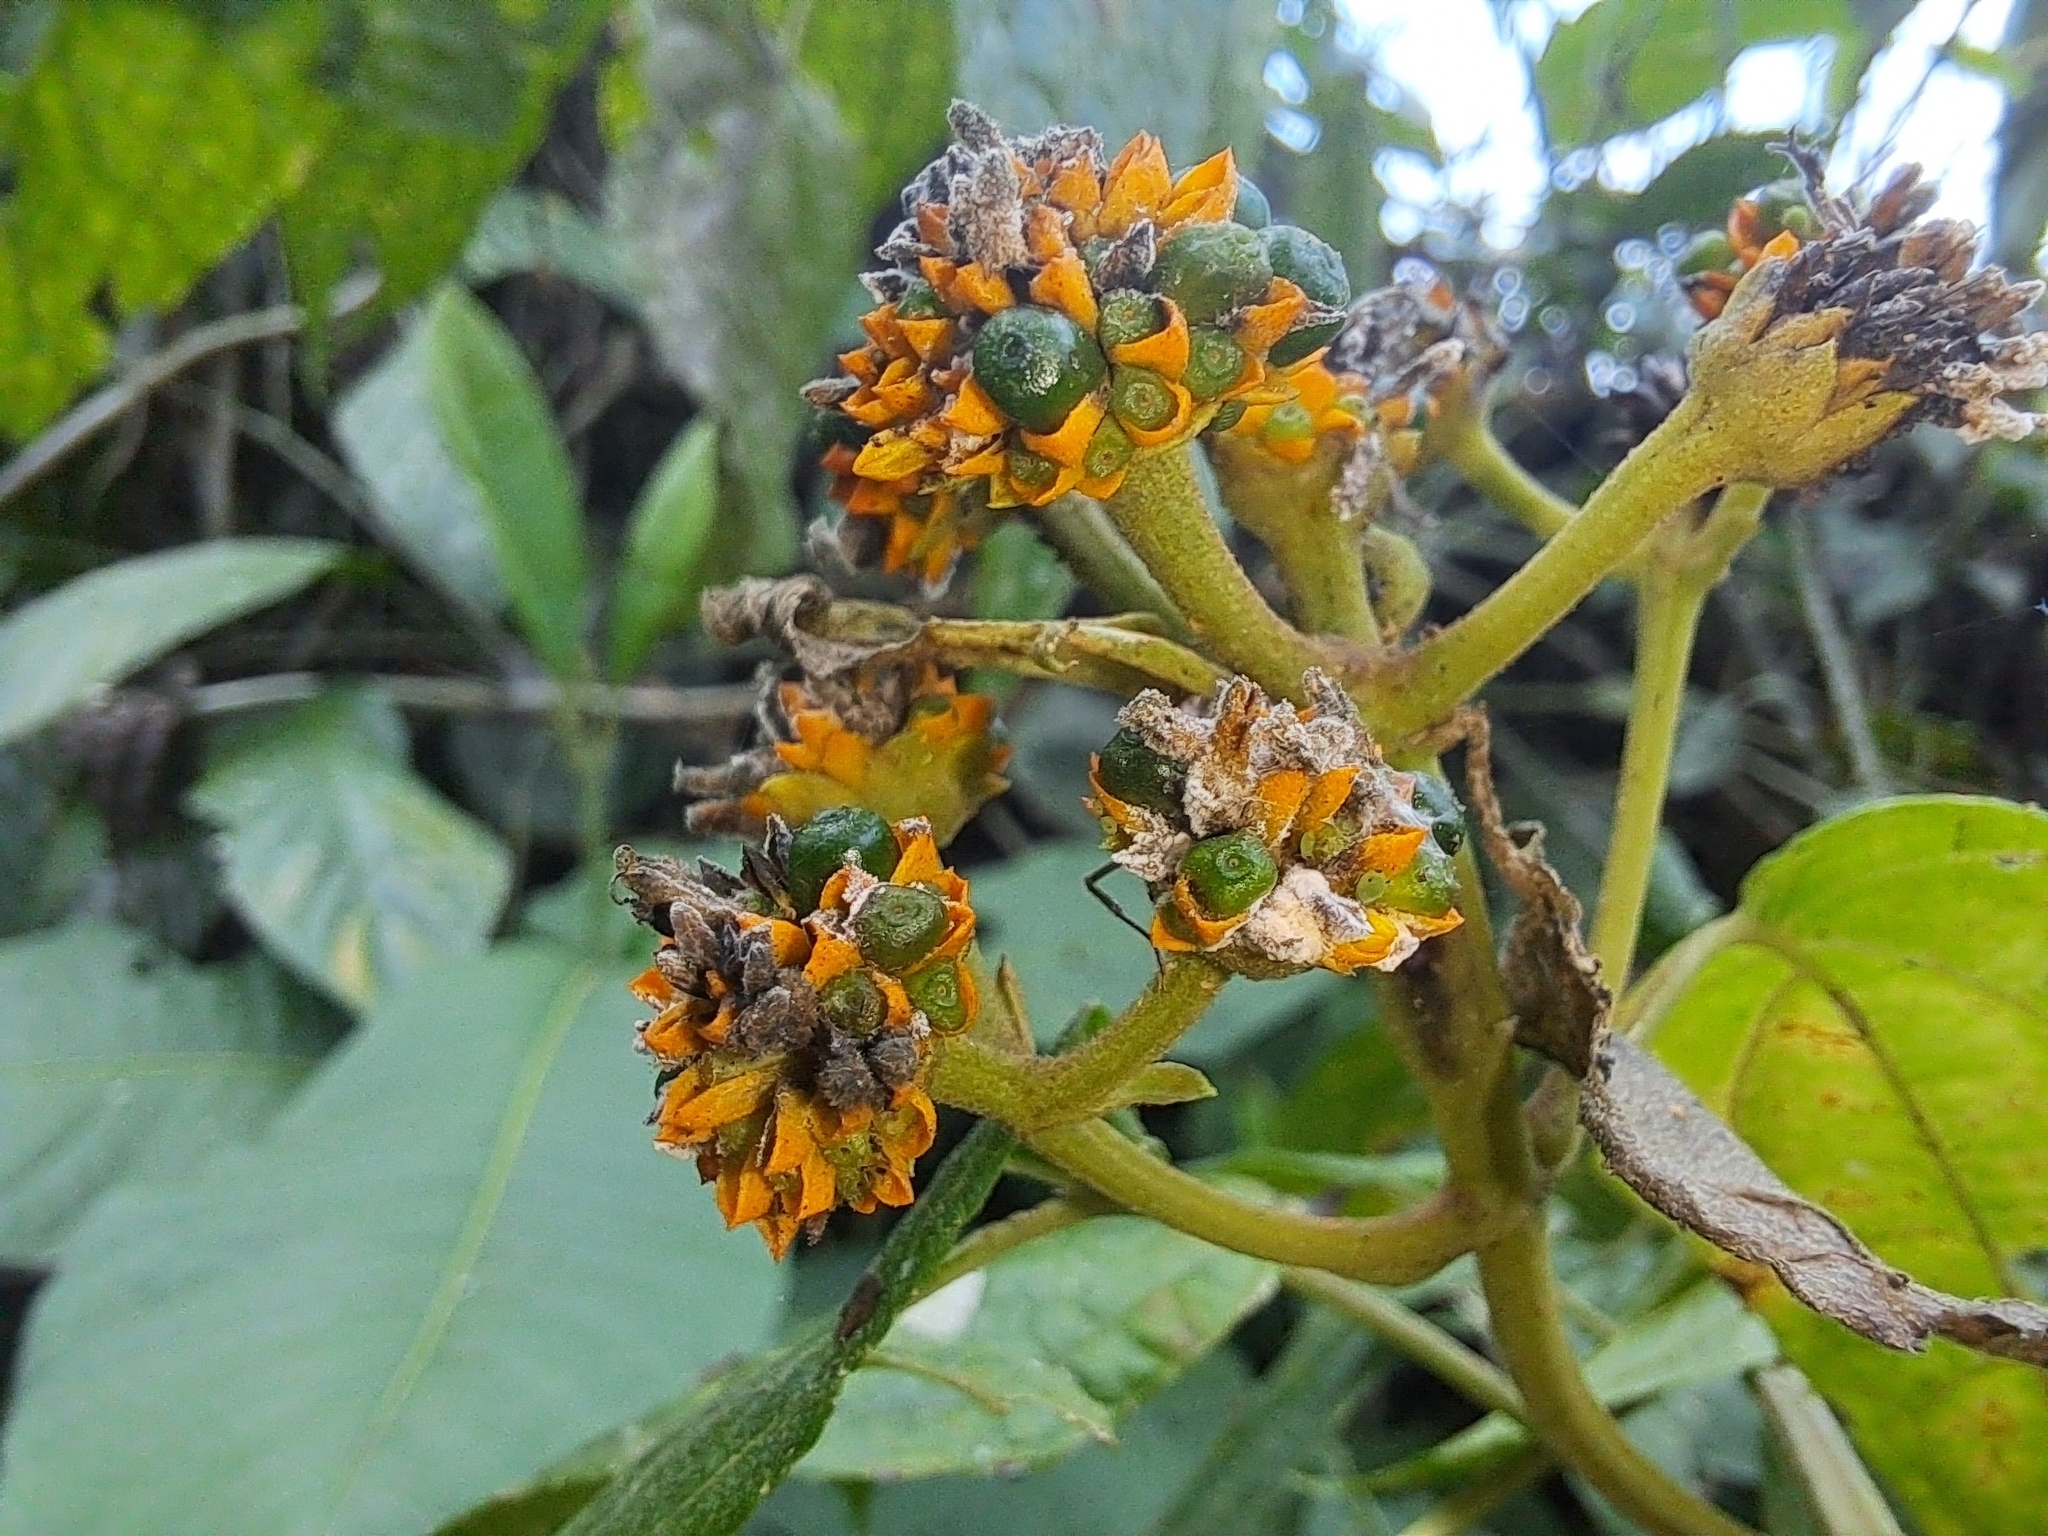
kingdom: Plantae
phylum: Tracheophyta
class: Magnoliopsida
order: Asterales
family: Asteraceae
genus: Tilesia
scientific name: Tilesia baccata
